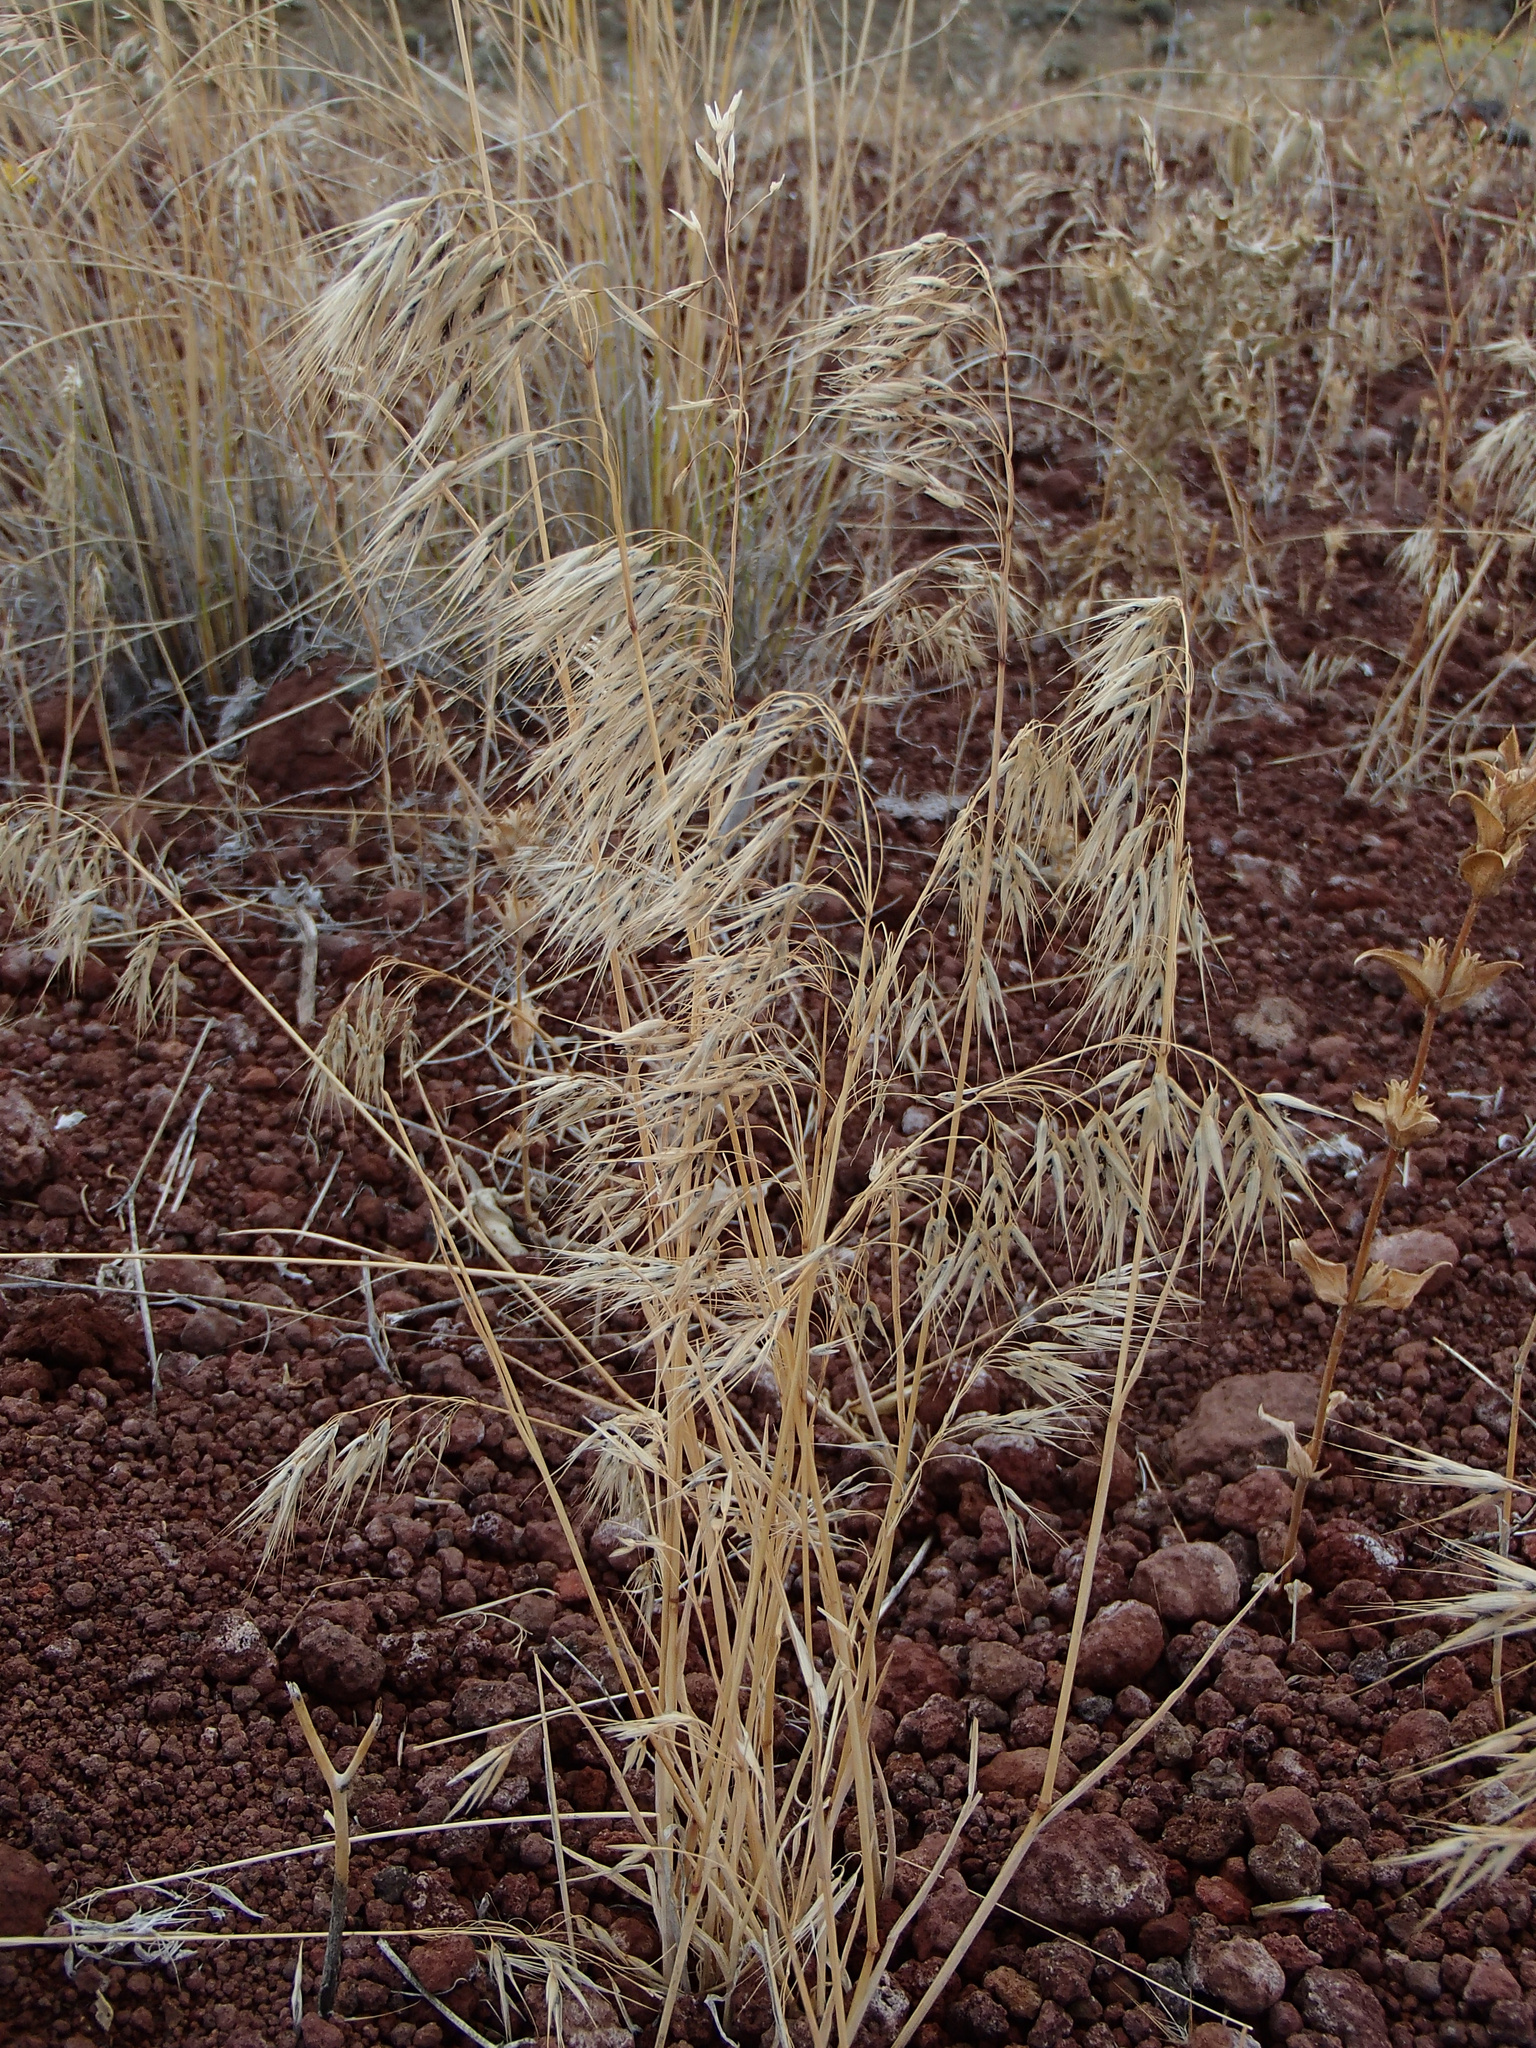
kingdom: Plantae
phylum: Tracheophyta
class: Liliopsida
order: Poales
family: Poaceae
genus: Bromus
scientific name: Bromus tectorum
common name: Cheatgrass
